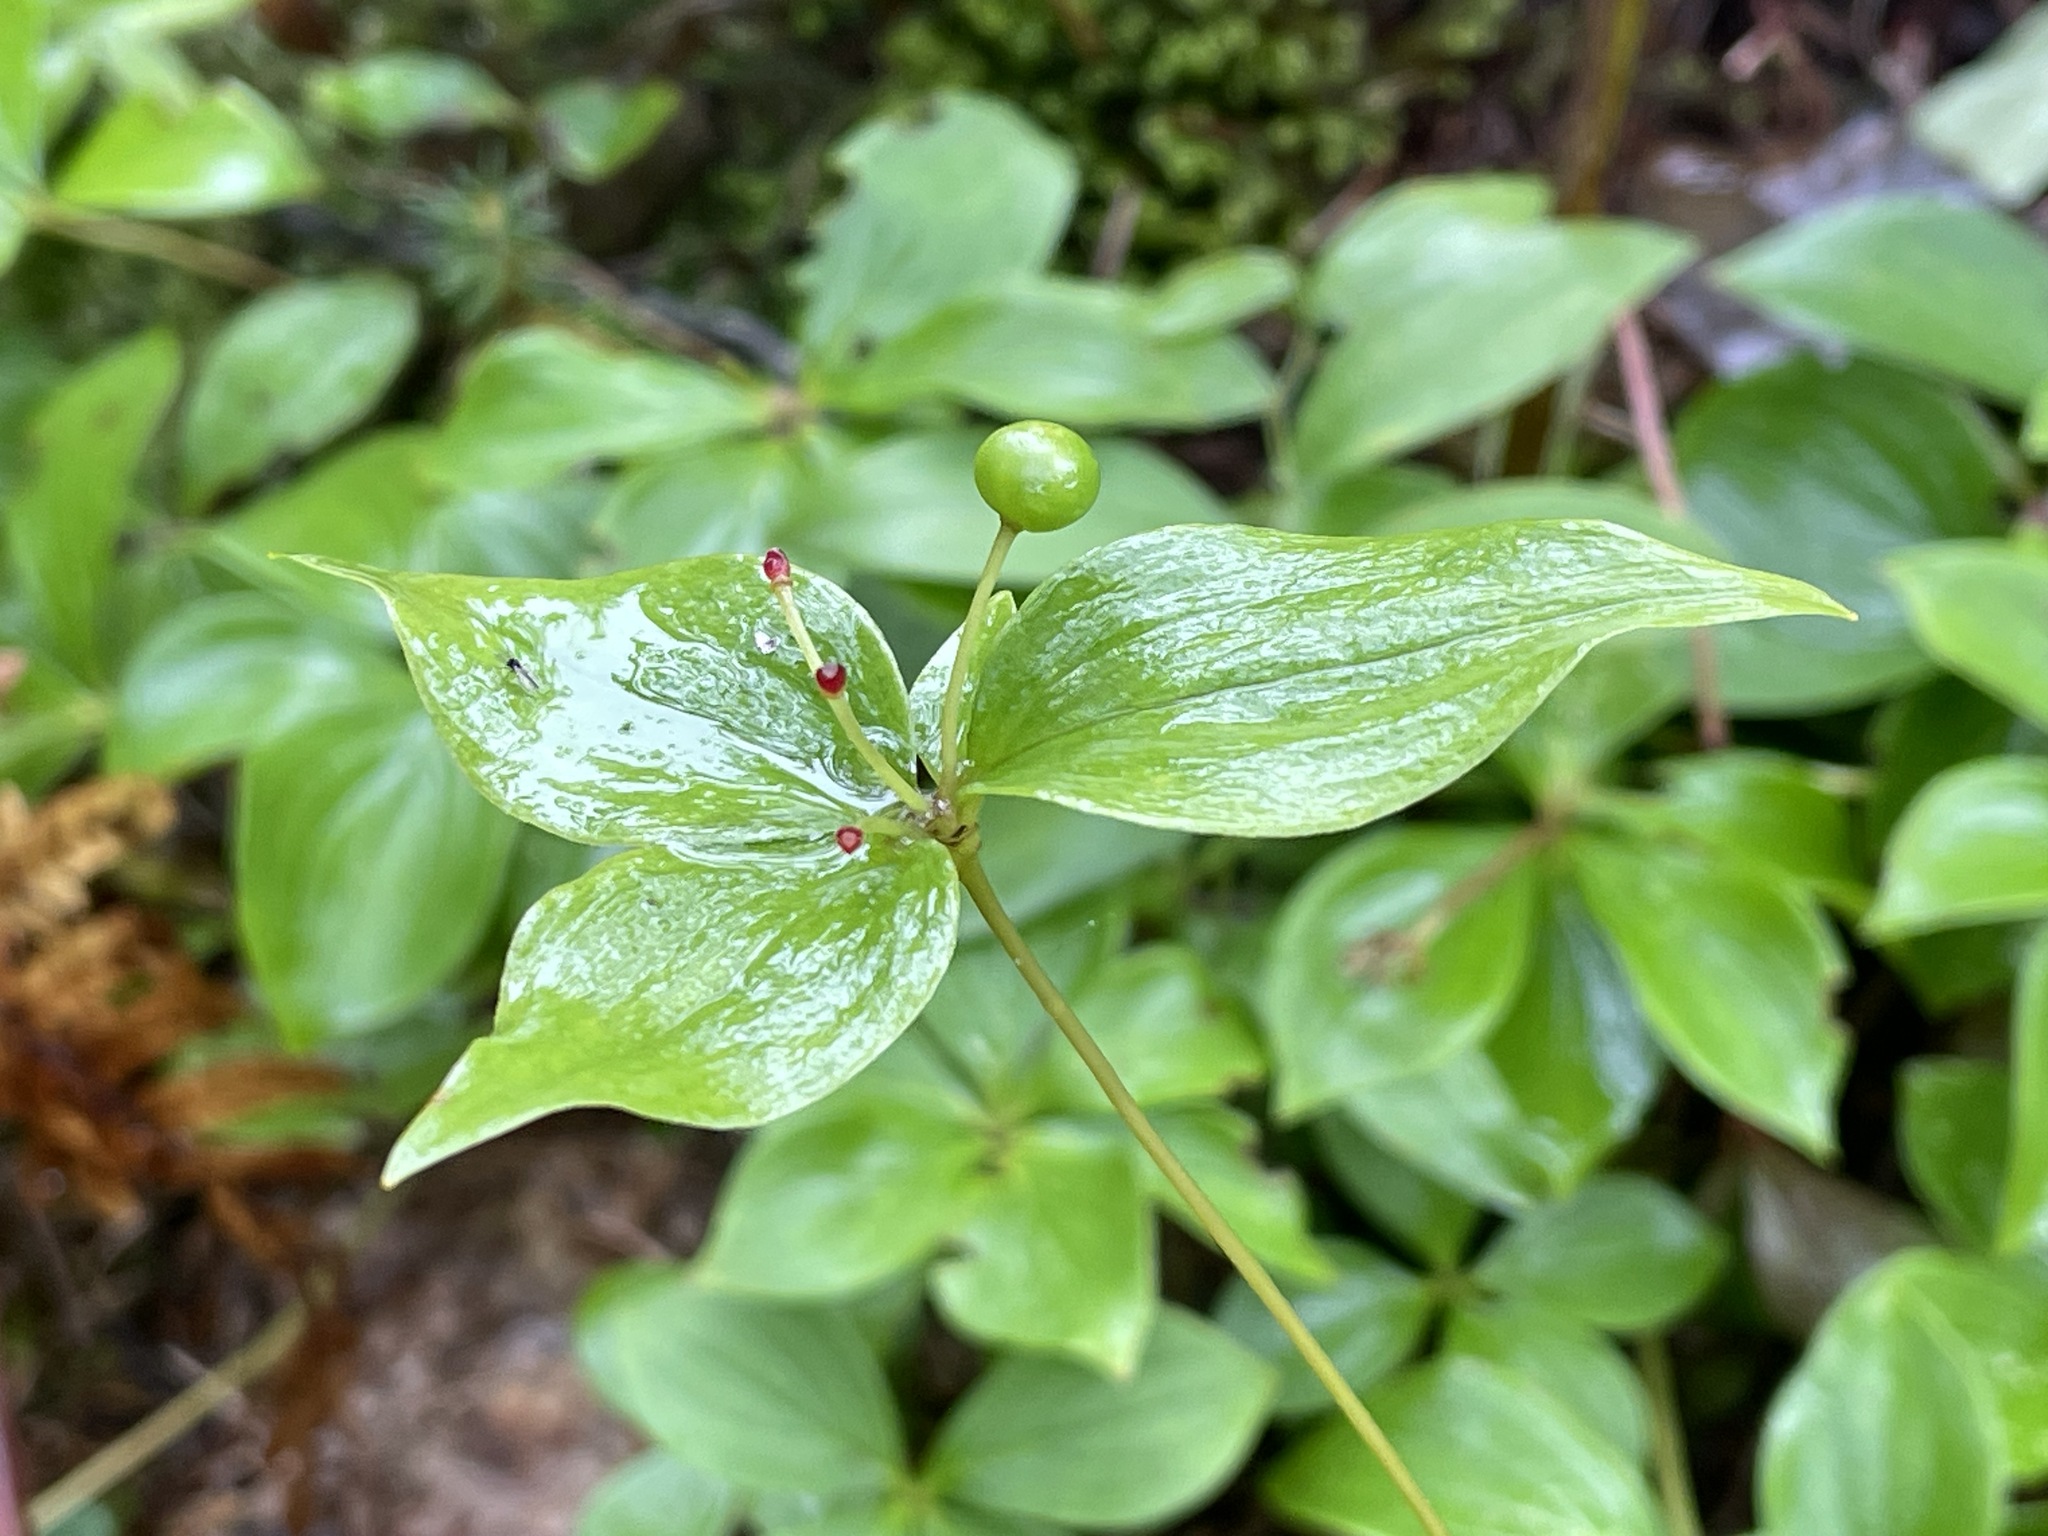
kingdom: Plantae
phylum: Tracheophyta
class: Liliopsida
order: Liliales
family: Liliaceae
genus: Medeola
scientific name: Medeola virginiana
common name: Indian cucumber-root
